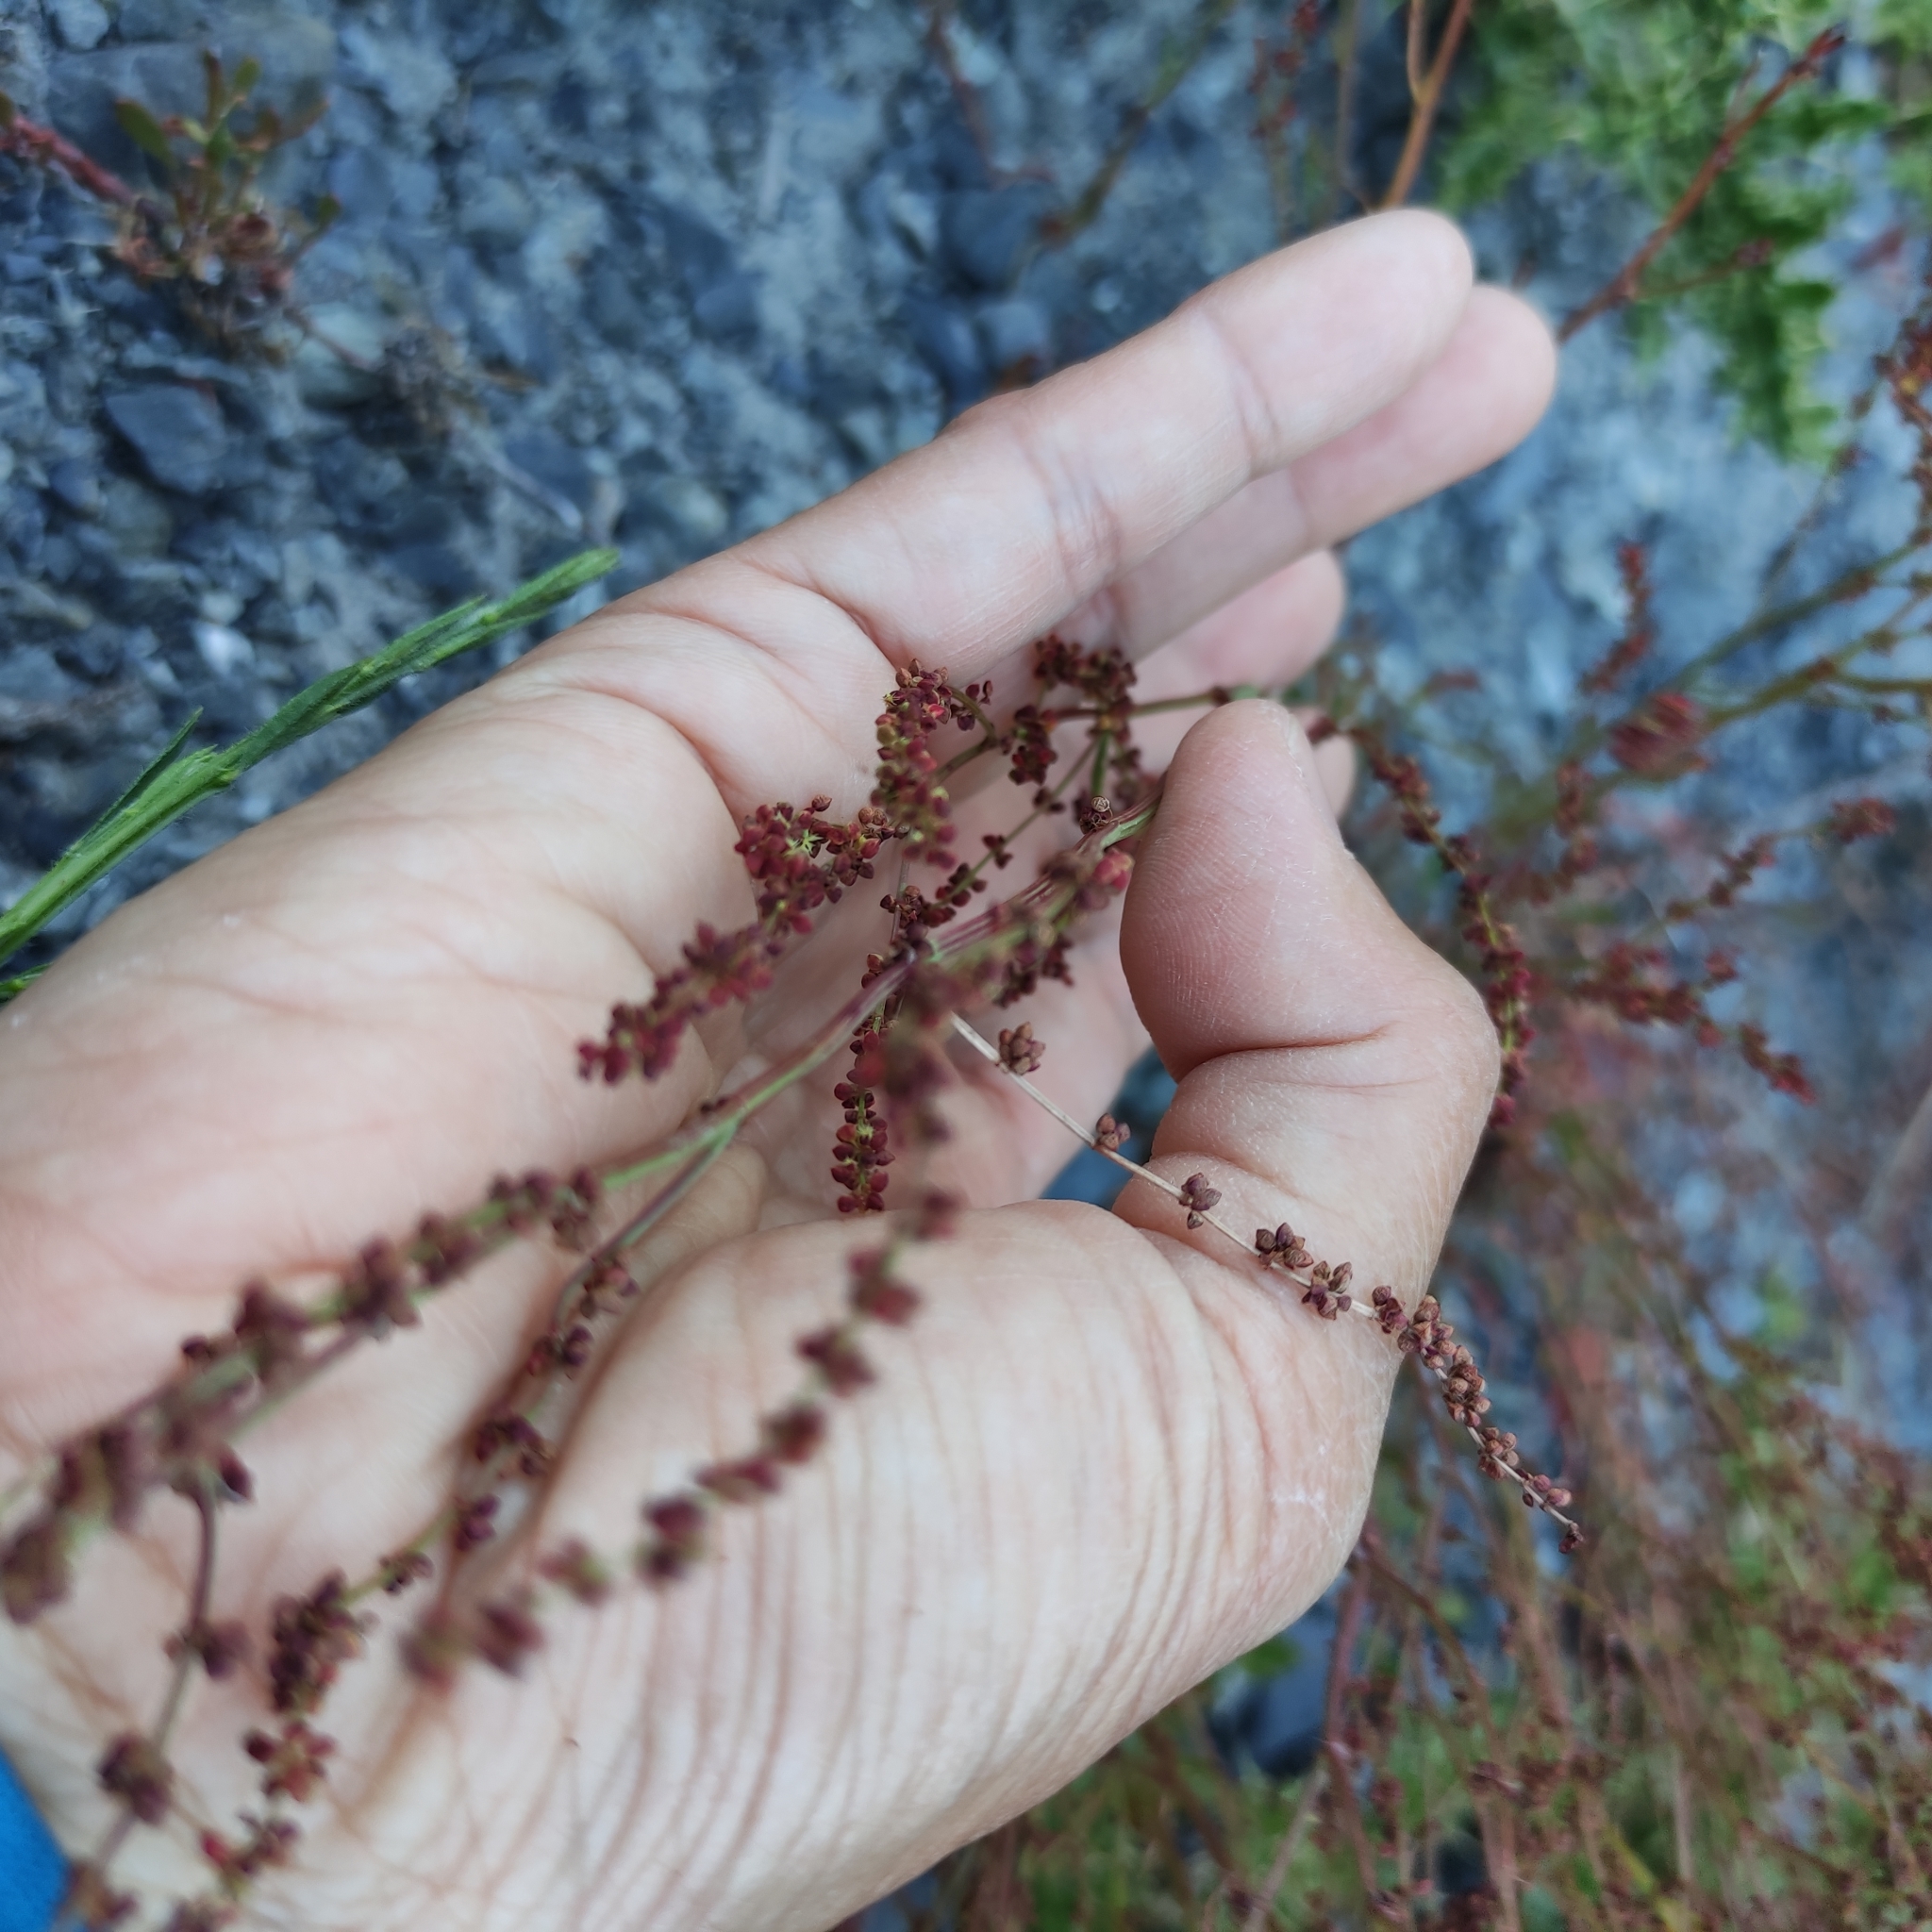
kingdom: Plantae
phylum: Tracheophyta
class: Magnoliopsida
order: Caryophyllales
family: Polygonaceae
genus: Rumex
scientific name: Rumex acetosella
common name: Common sheep sorrel
